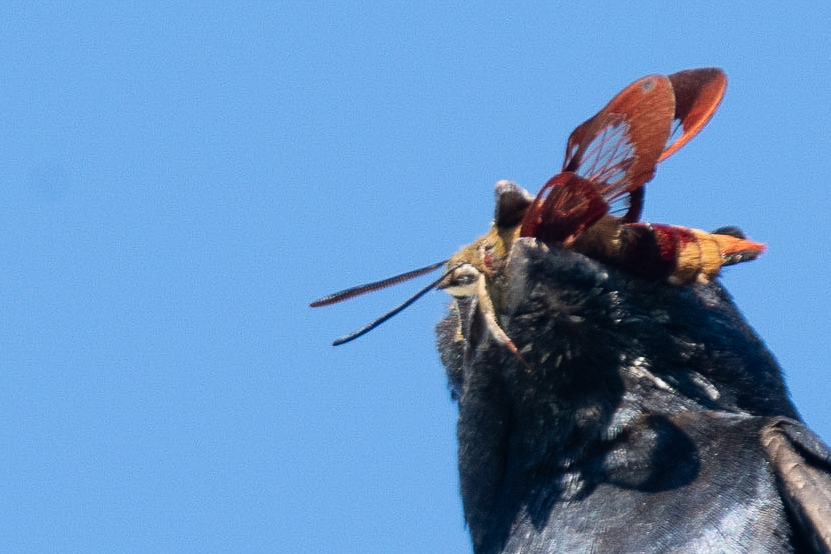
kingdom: Animalia
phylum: Arthropoda
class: Insecta
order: Lepidoptera
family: Sphingidae
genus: Hemaris
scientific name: Hemaris thysbe
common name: Common clear-wing
